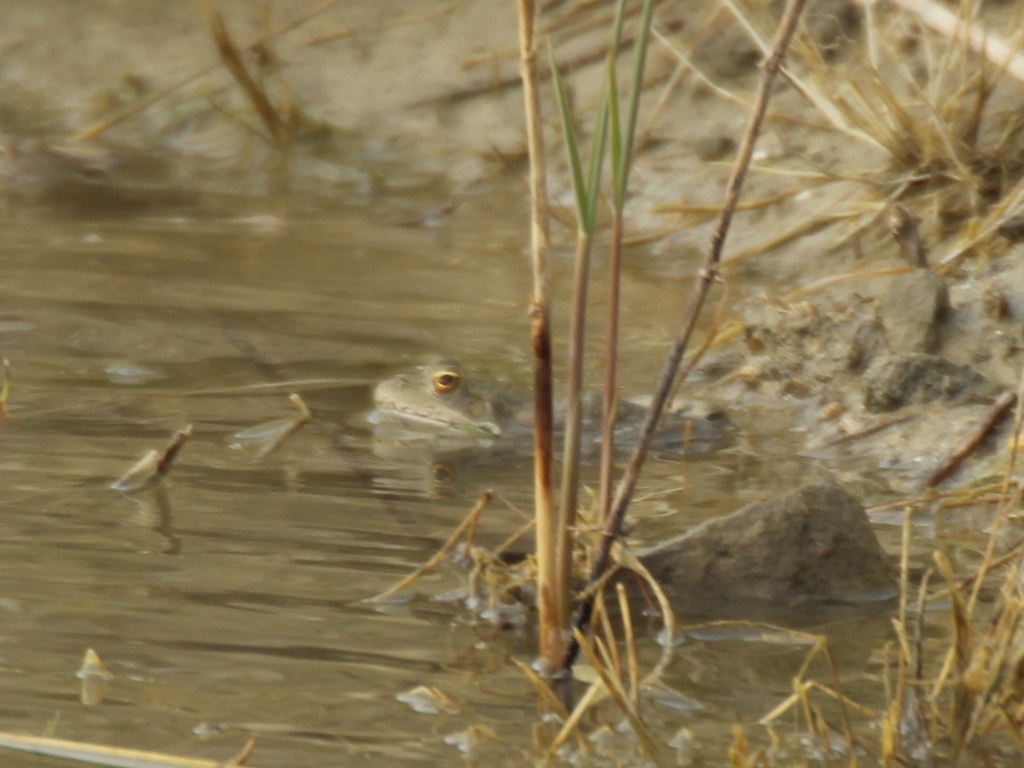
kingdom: Animalia
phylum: Chordata
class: Amphibia
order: Anura
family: Ranidae
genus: Pelophylax
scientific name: Pelophylax ridibundus
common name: Marsh frog
